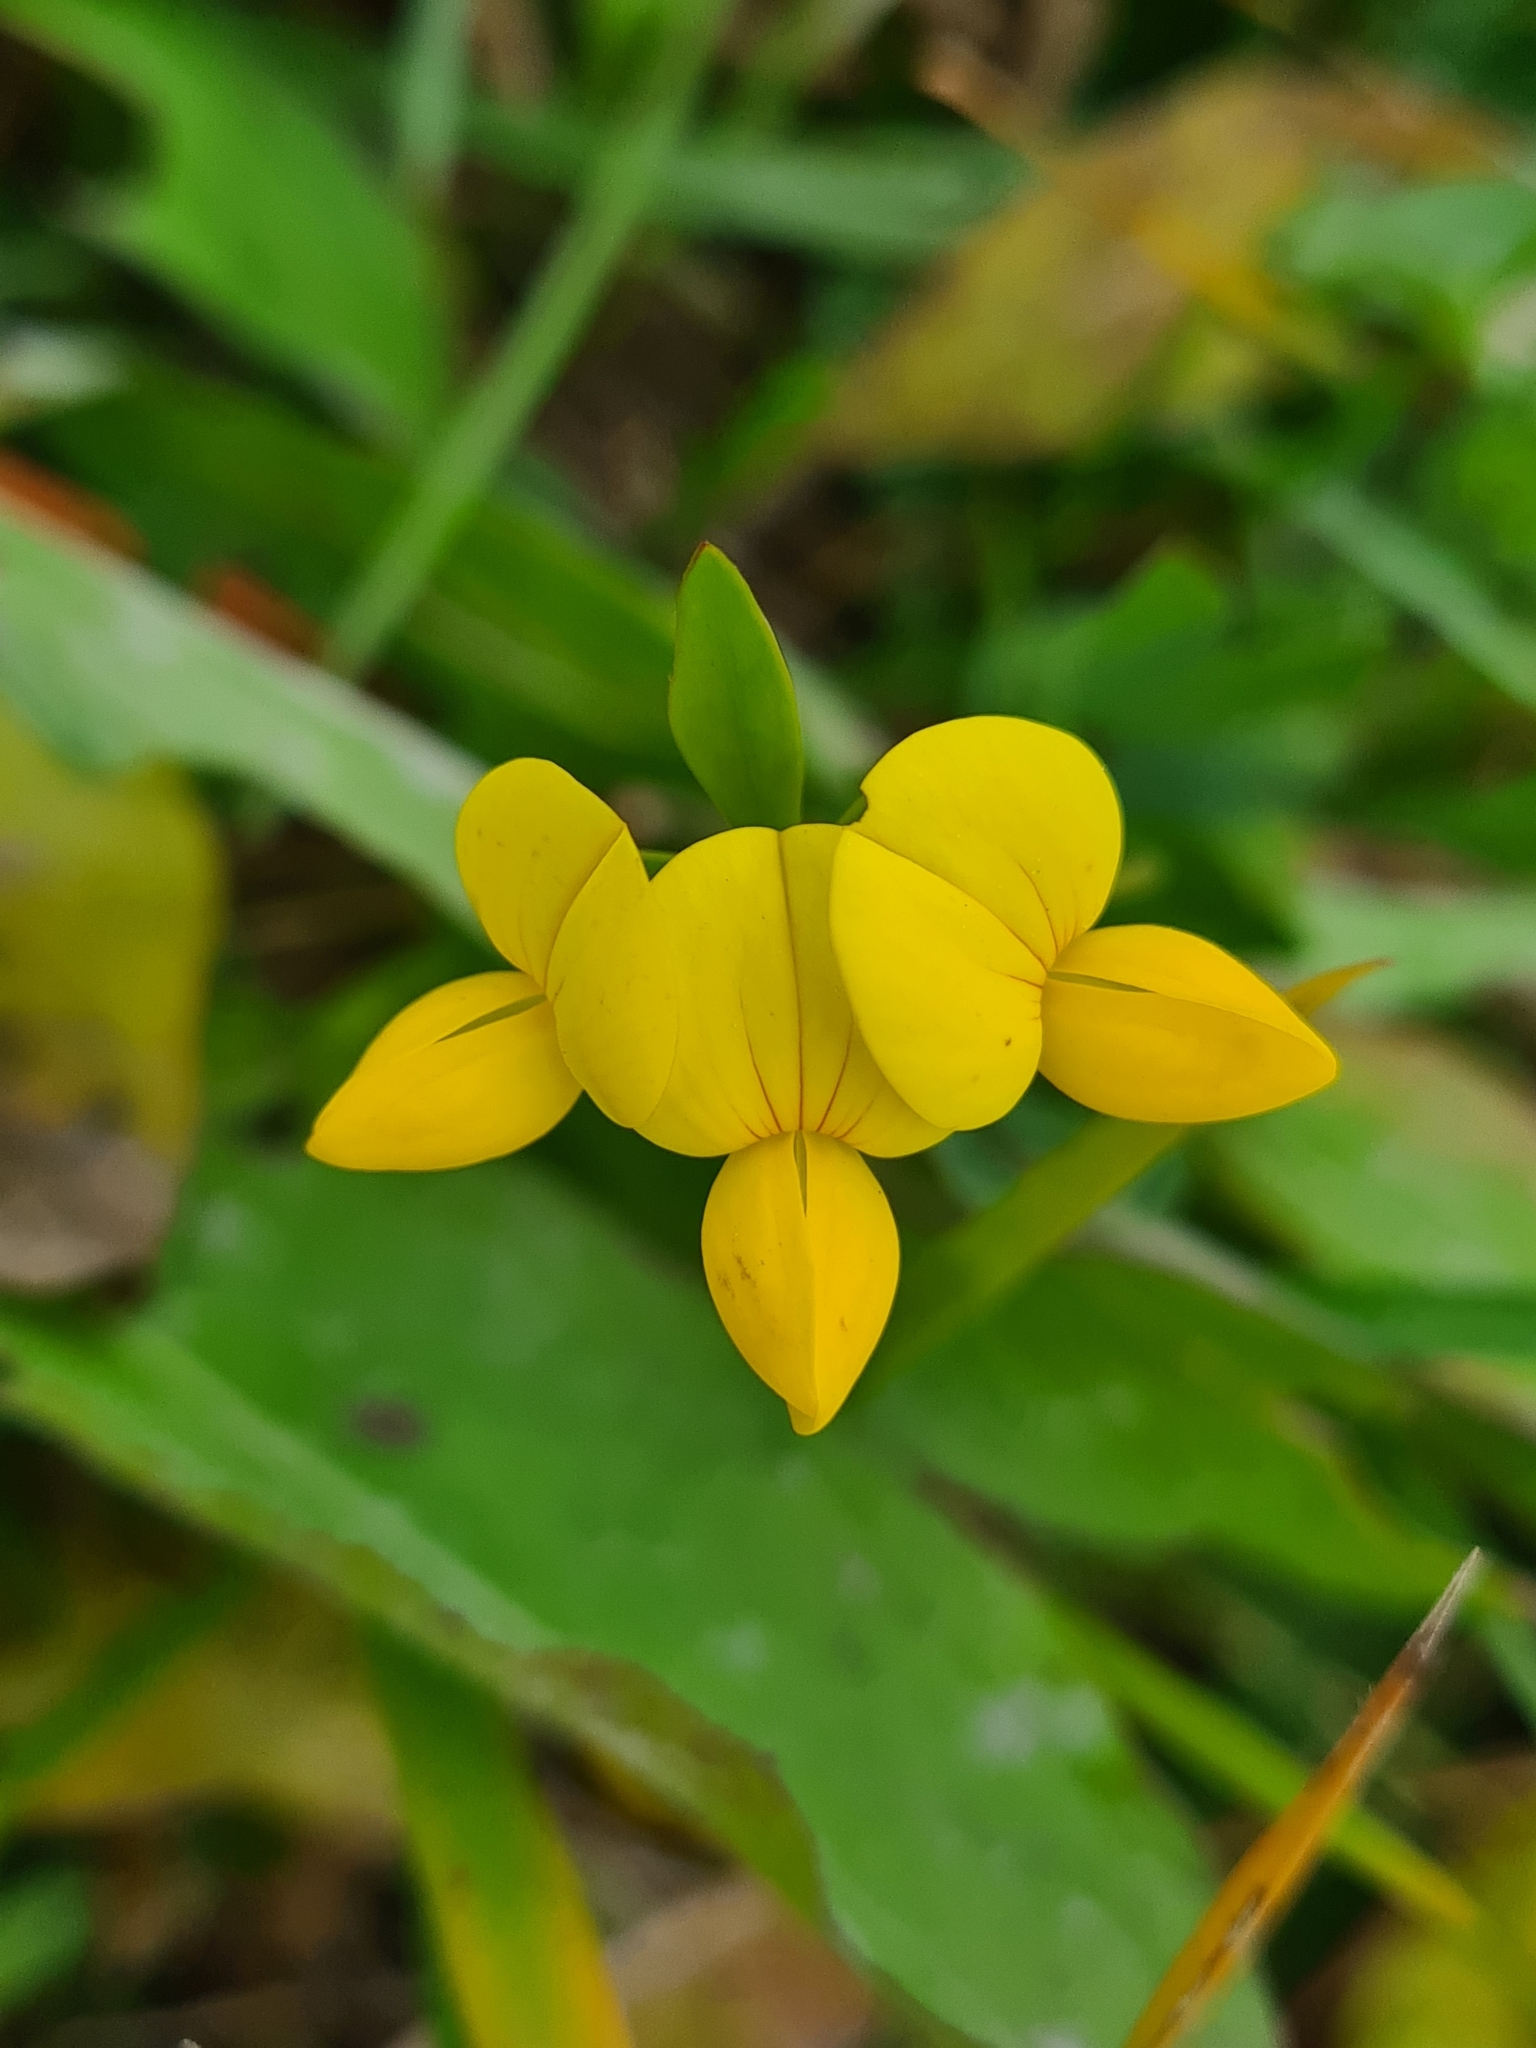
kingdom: Plantae
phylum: Tracheophyta
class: Magnoliopsida
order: Fabales
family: Fabaceae
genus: Lotus
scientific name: Lotus corniculatus
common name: Common bird's-foot-trefoil
